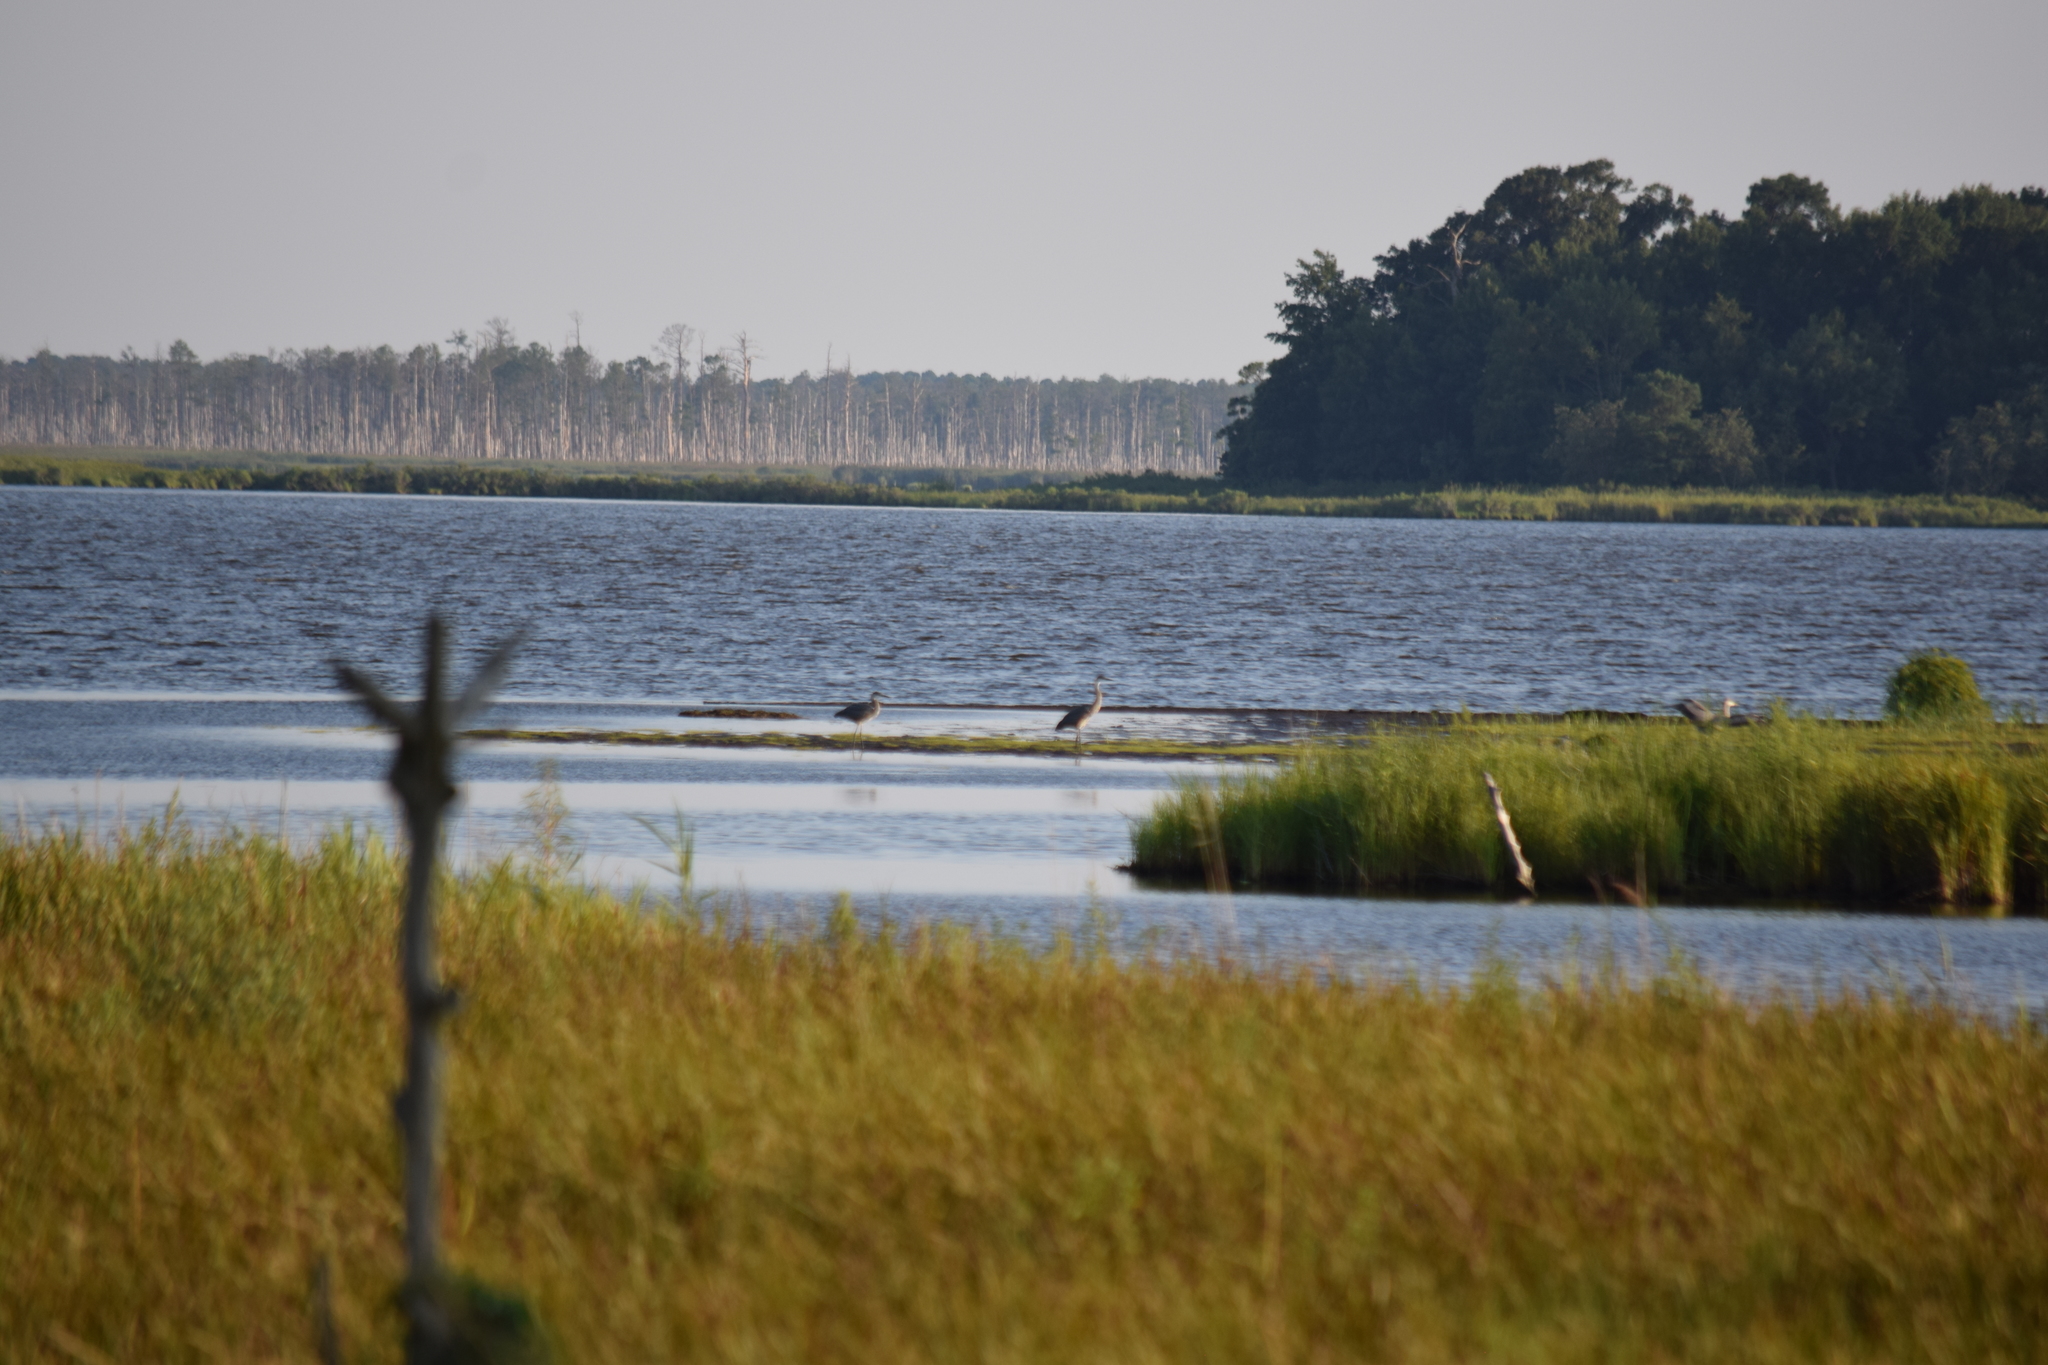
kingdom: Animalia
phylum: Chordata
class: Aves
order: Pelecaniformes
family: Ardeidae
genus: Ardea
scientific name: Ardea herodias
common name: Great blue heron
